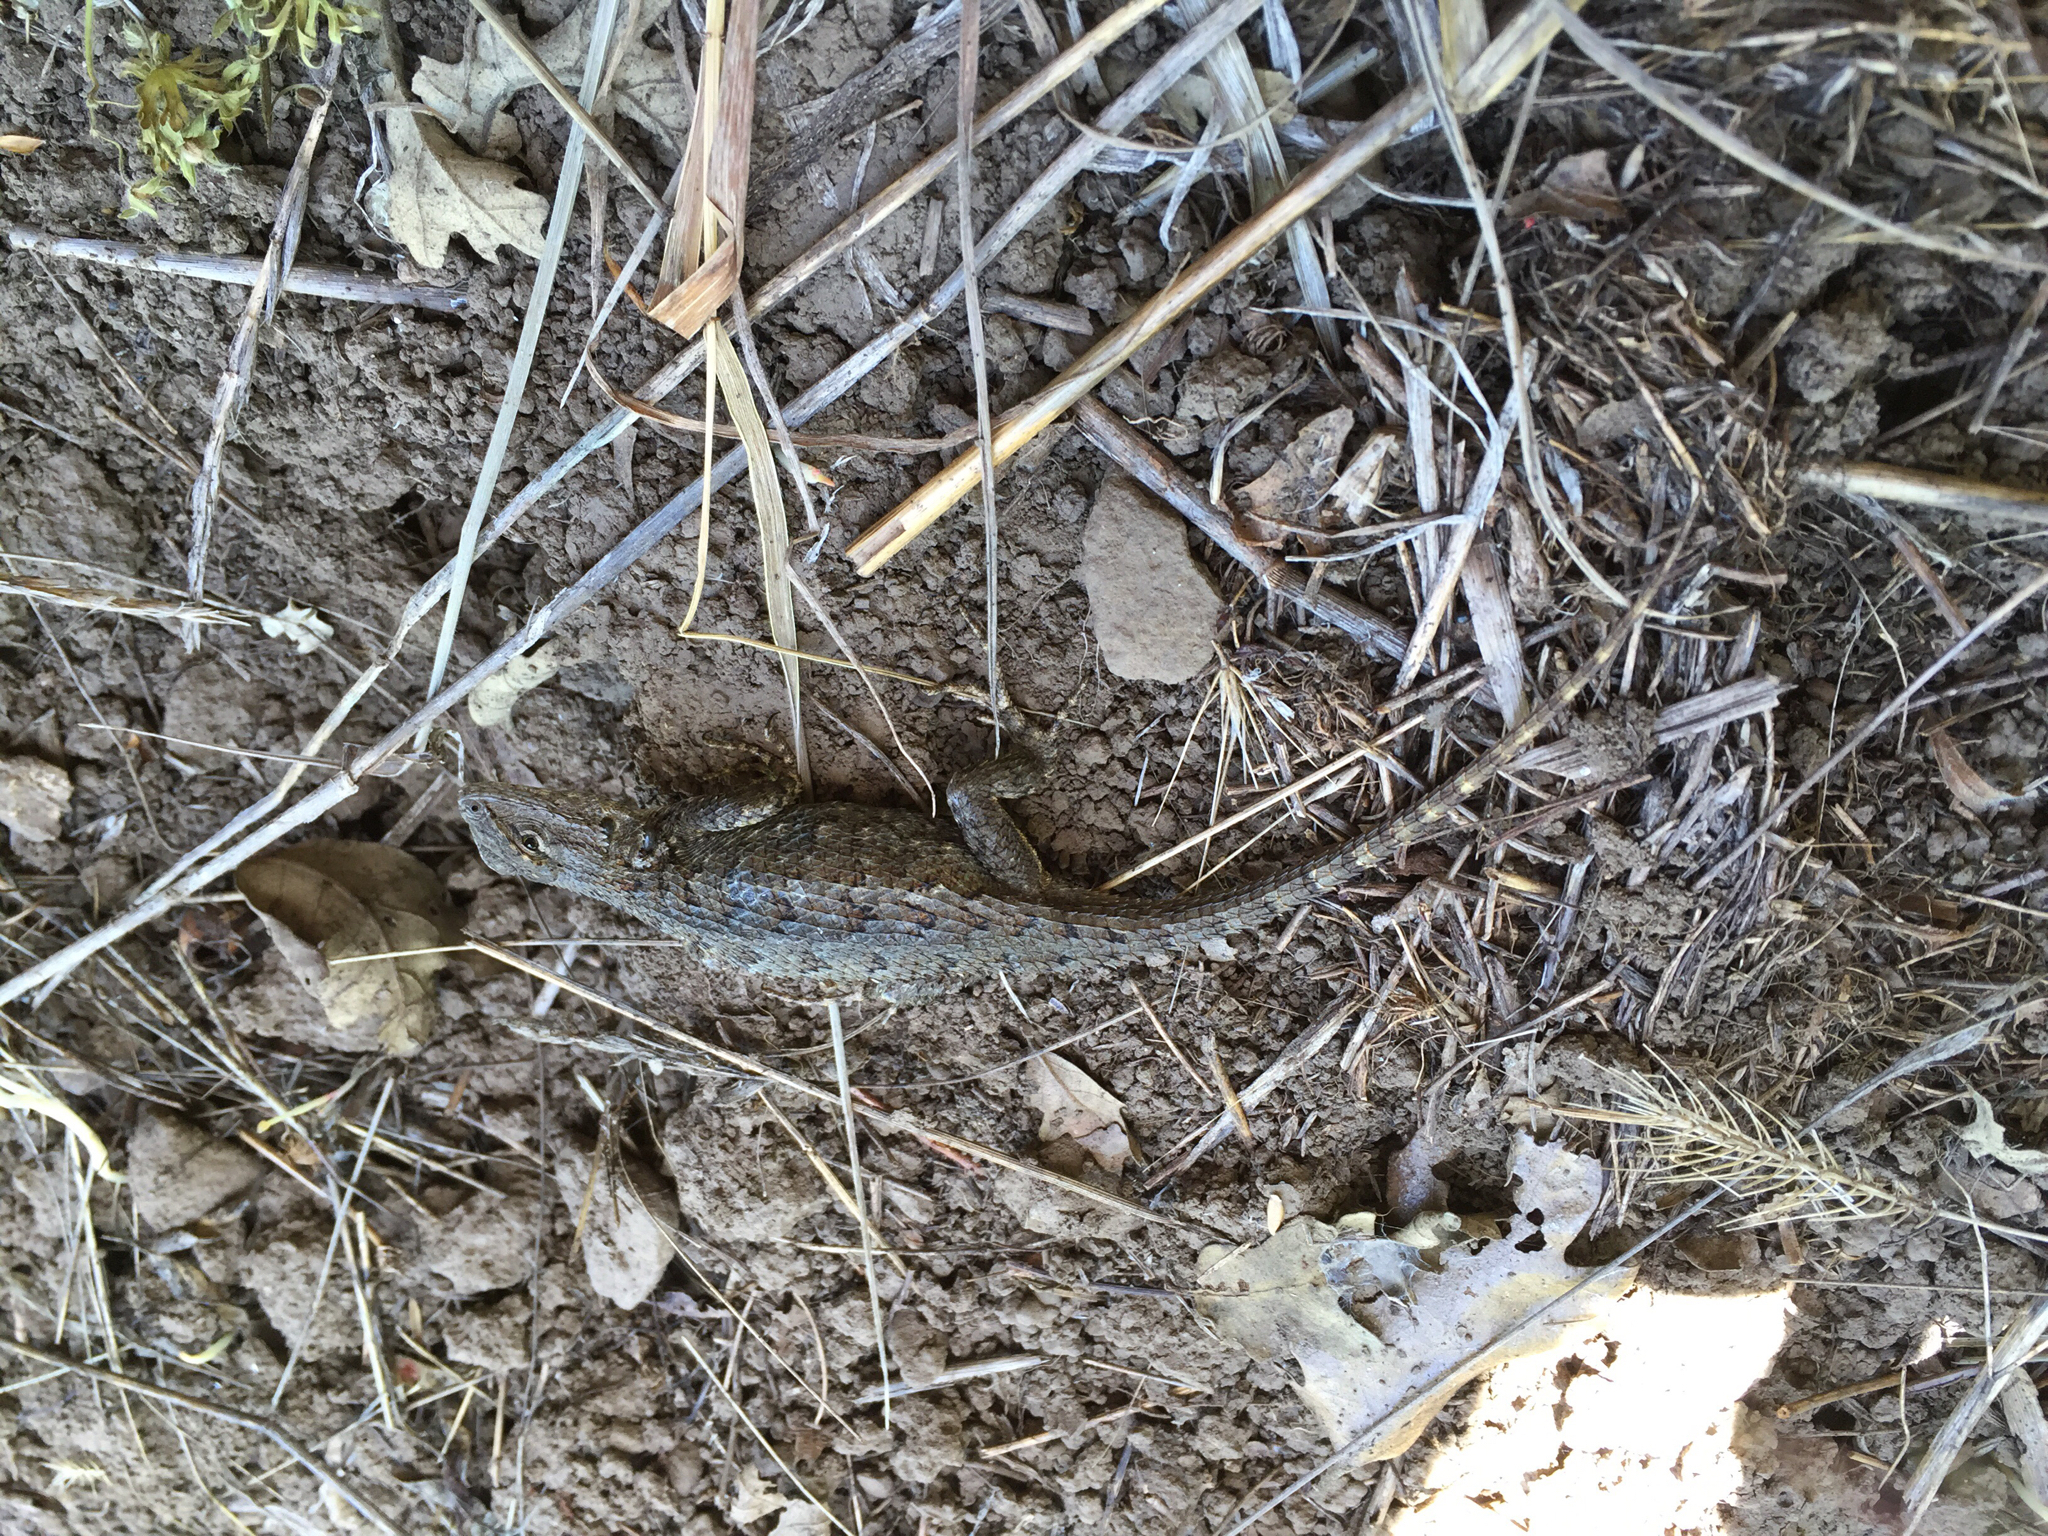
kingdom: Animalia
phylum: Chordata
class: Squamata
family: Phrynosomatidae
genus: Sceloporus
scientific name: Sceloporus occidentalis
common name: Western fence lizard
